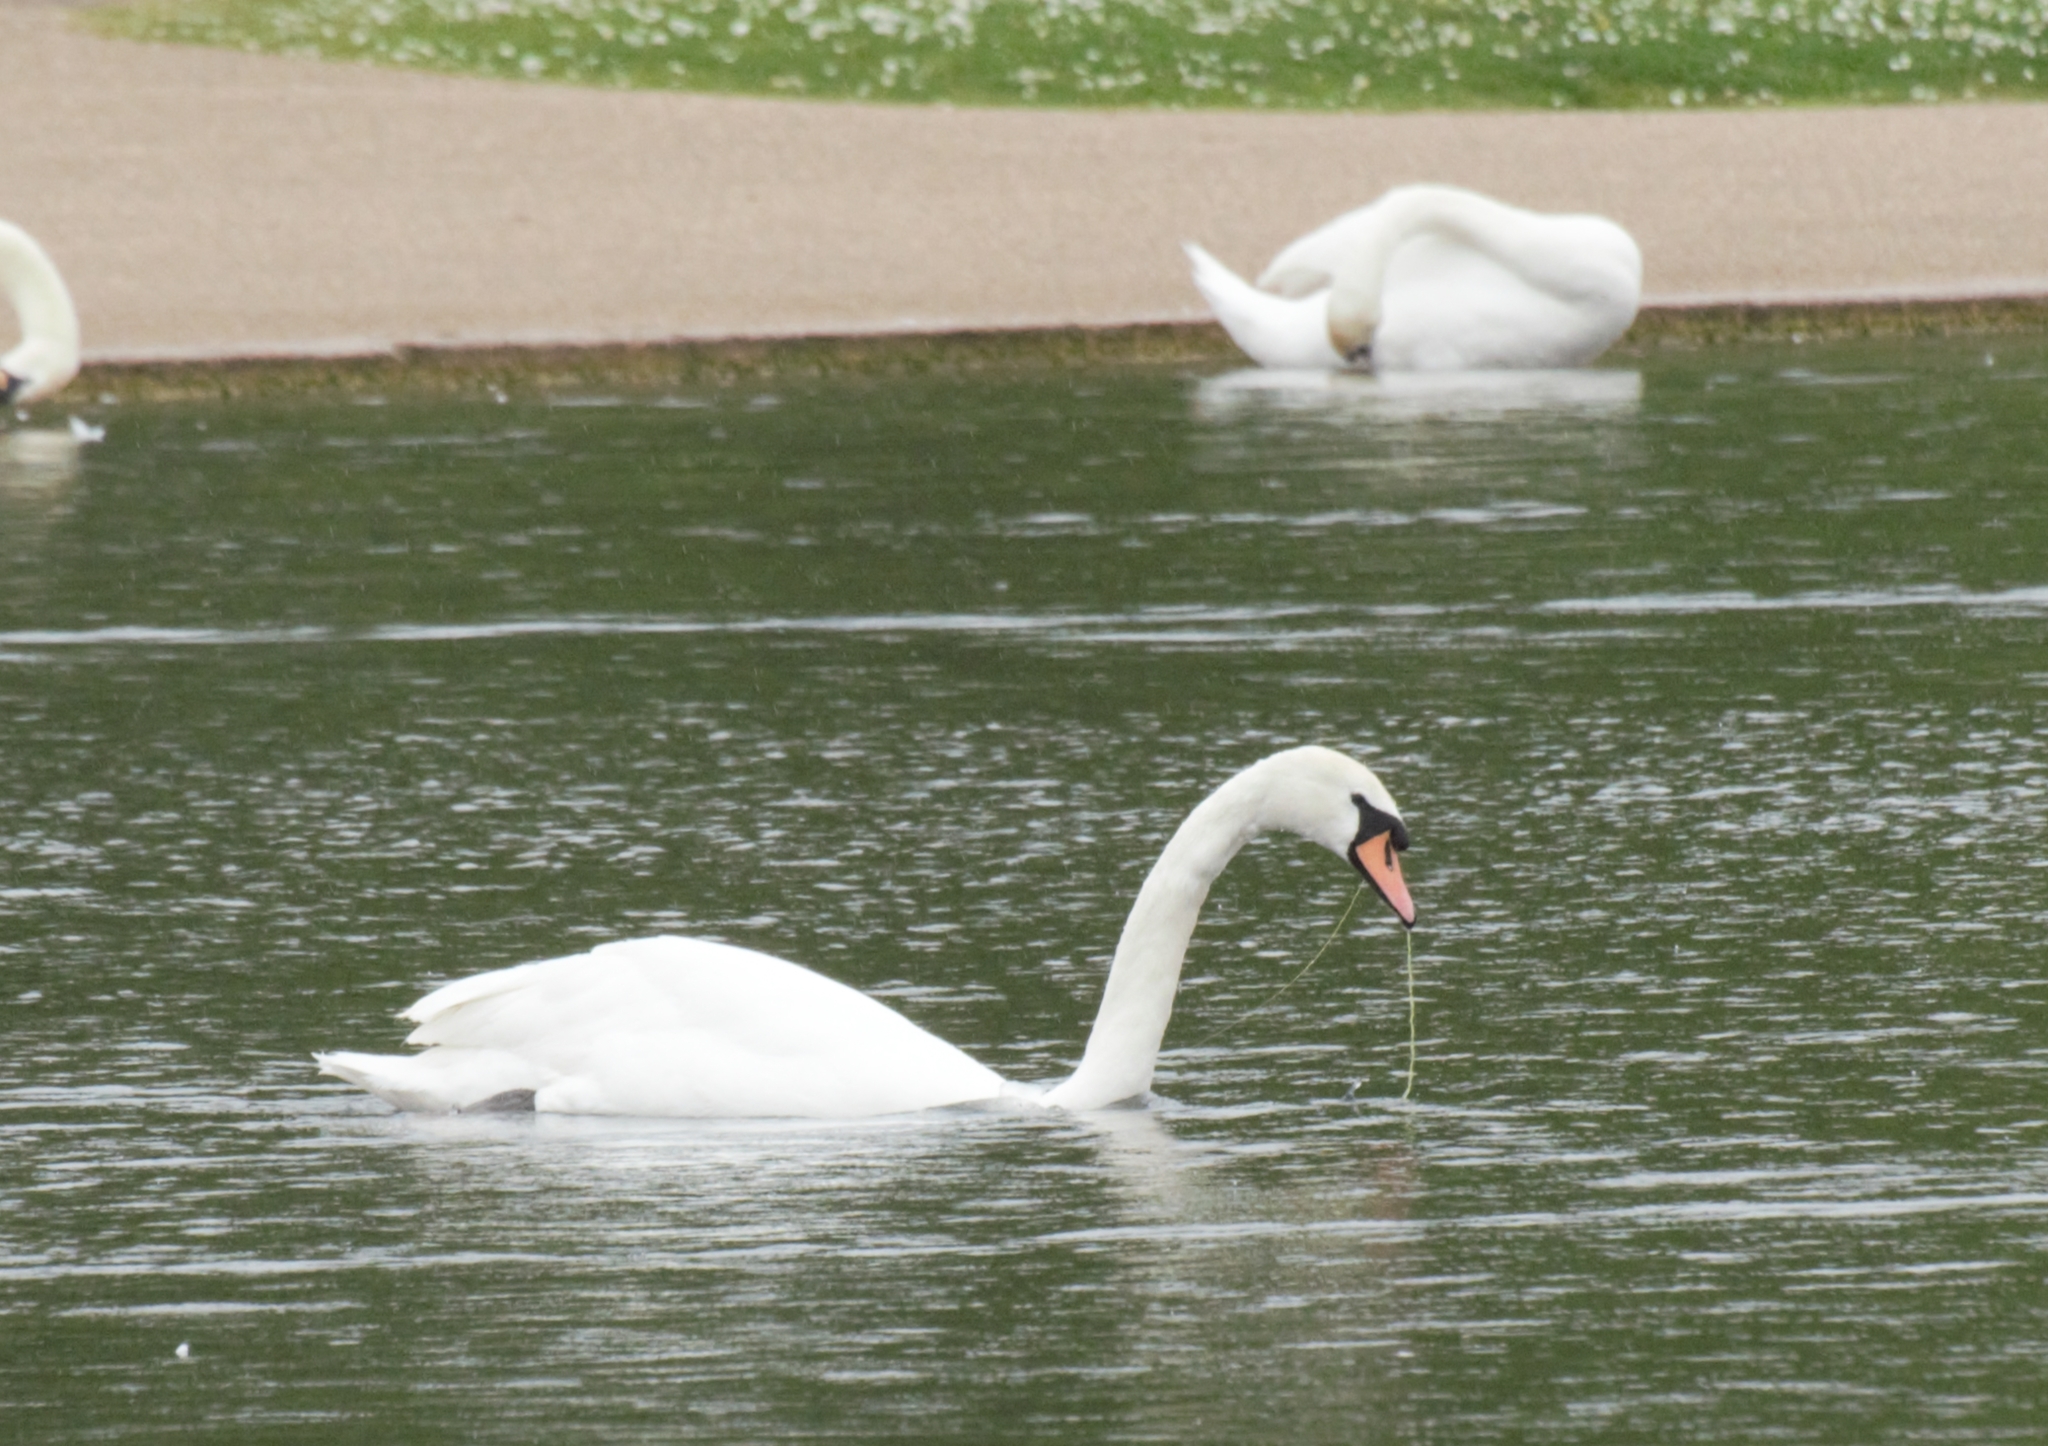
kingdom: Animalia
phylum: Chordata
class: Aves
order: Anseriformes
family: Anatidae
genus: Cygnus
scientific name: Cygnus olor
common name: Mute swan
